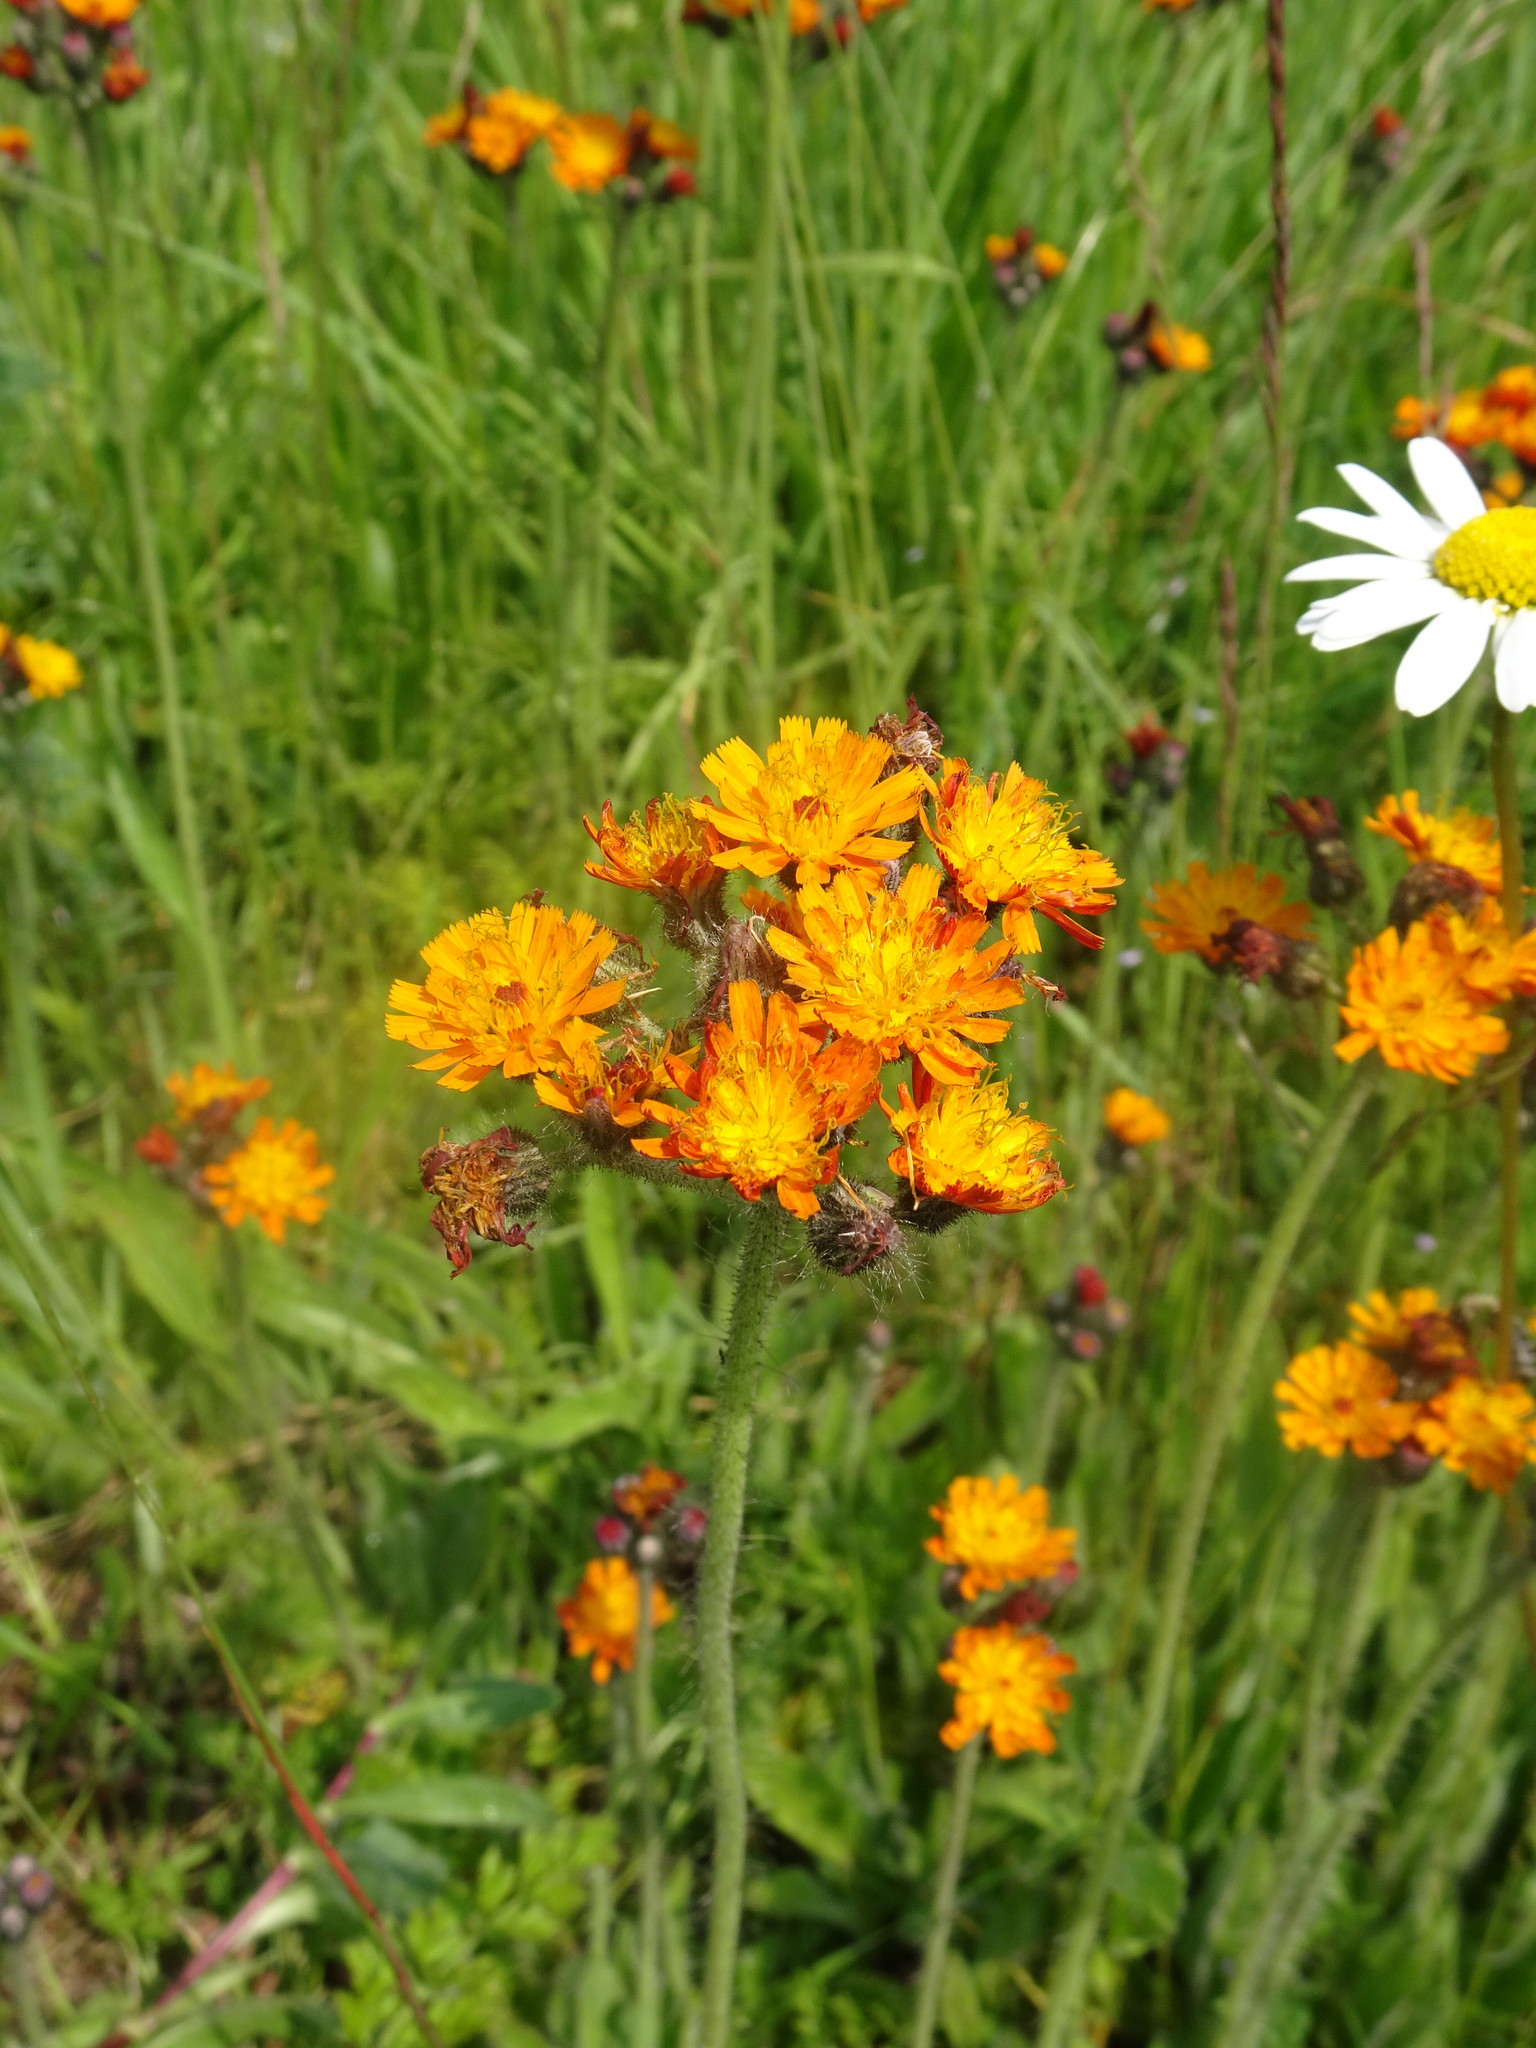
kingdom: Plantae
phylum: Tracheophyta
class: Magnoliopsida
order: Asterales
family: Asteraceae
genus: Pilosella
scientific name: Pilosella aurantiaca
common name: Fox-and-cubs
